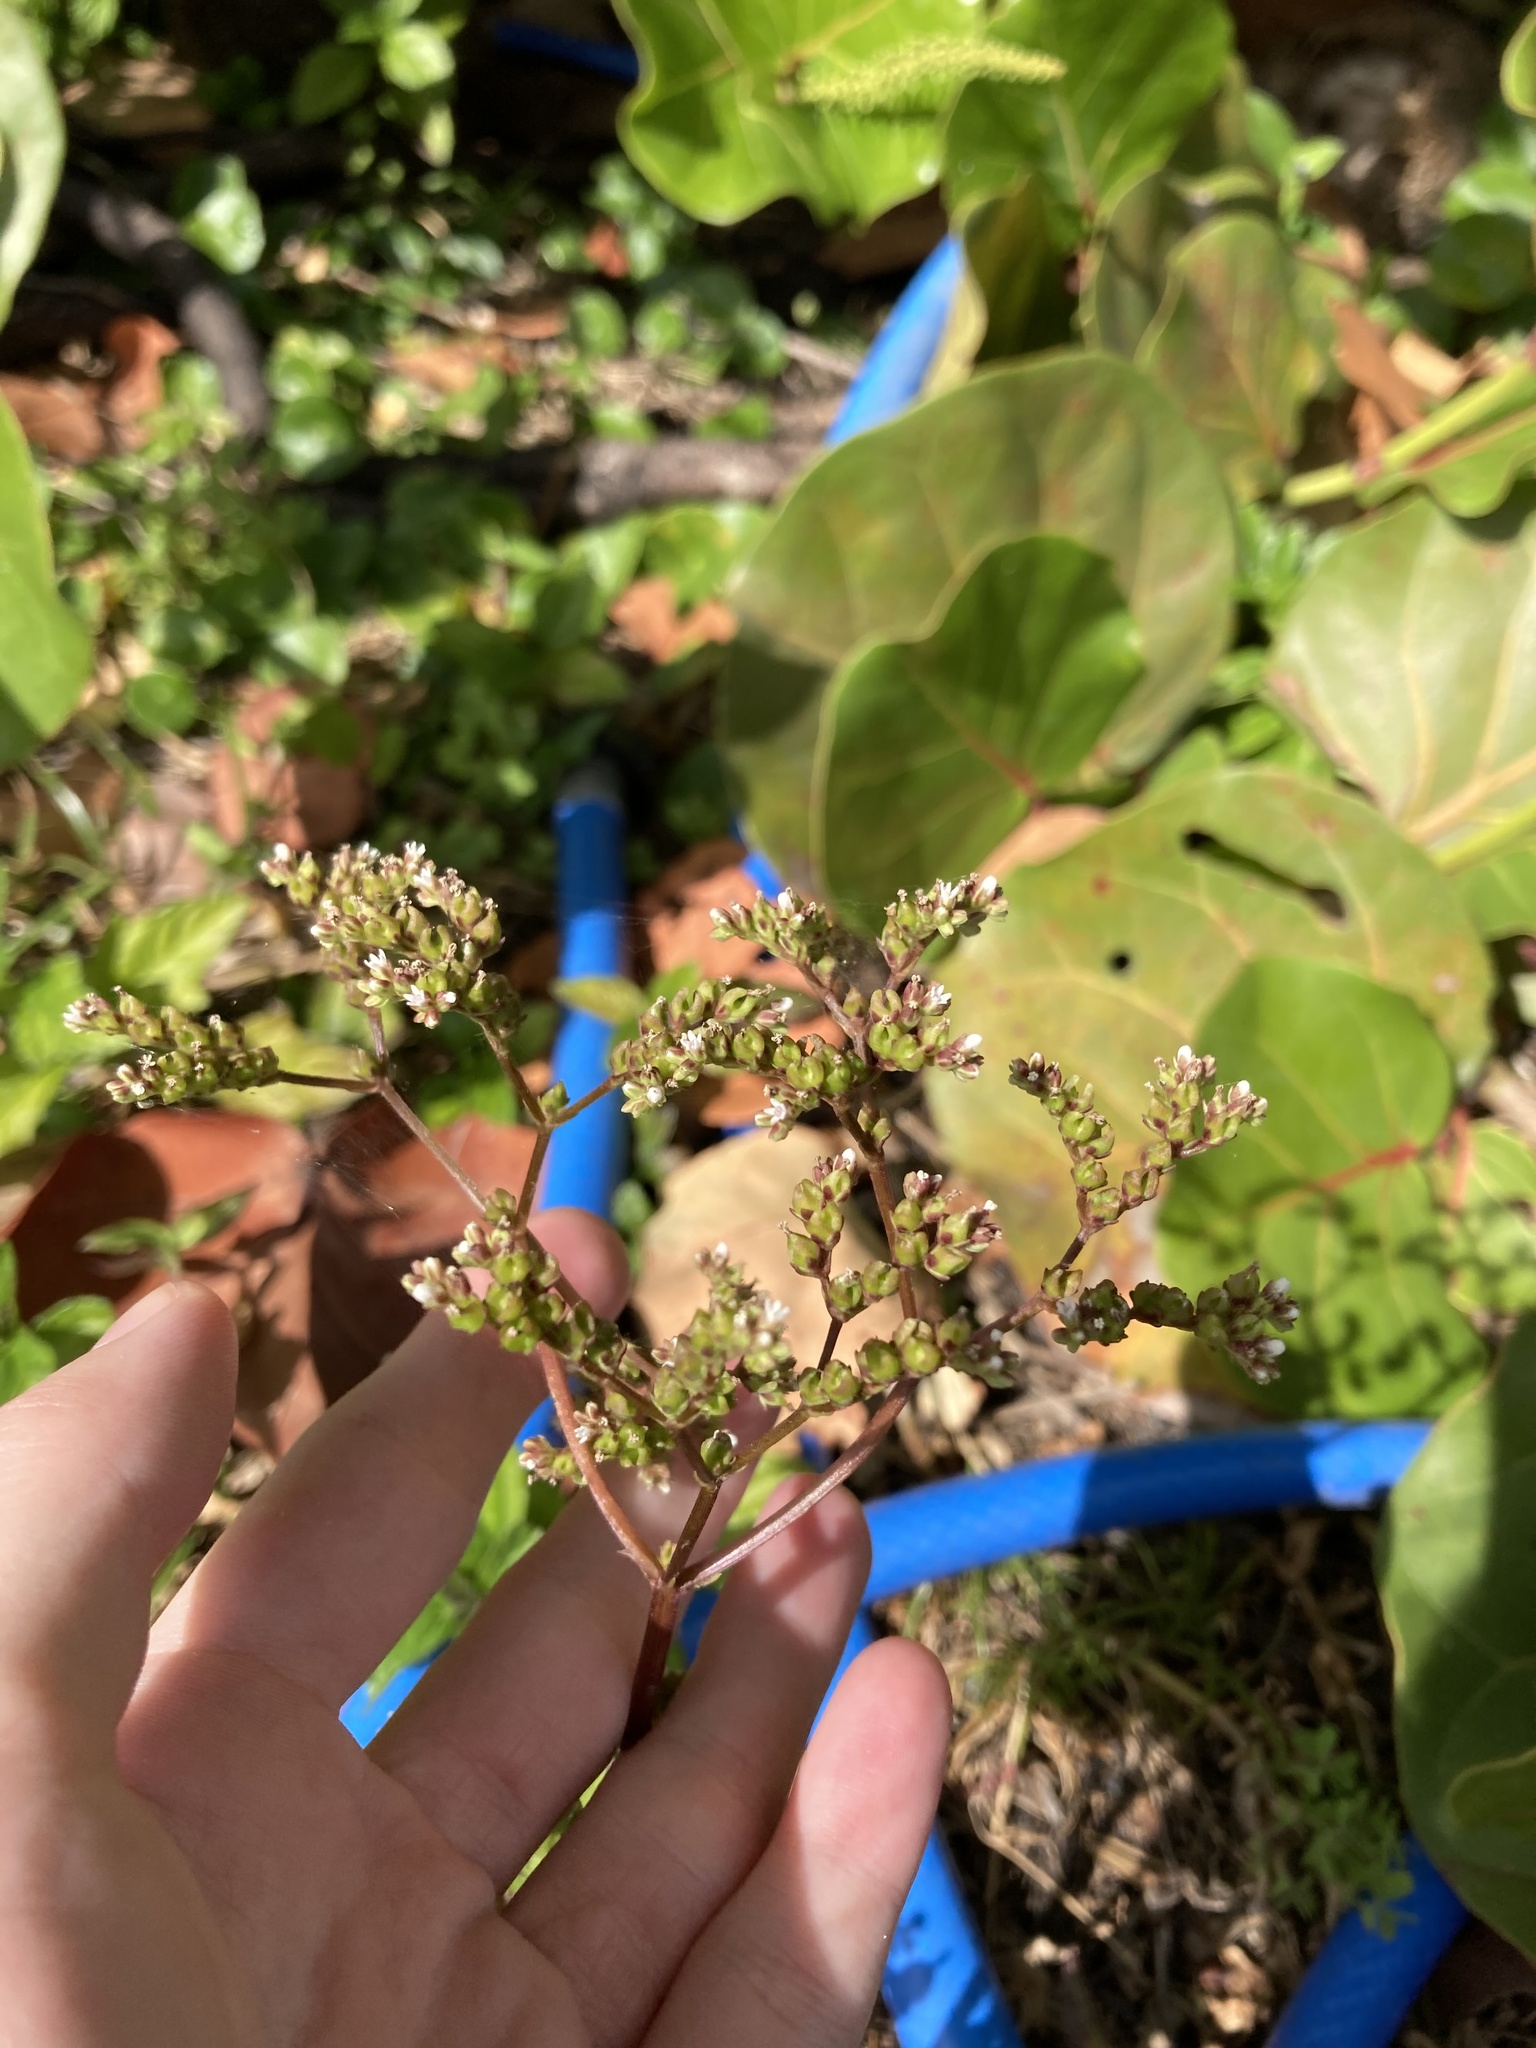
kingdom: Plantae
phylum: Tracheophyta
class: Magnoliopsida
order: Gentianales
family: Loganiaceae
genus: Mitreola
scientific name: Mitreola petiolata
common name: Lax hornpod
